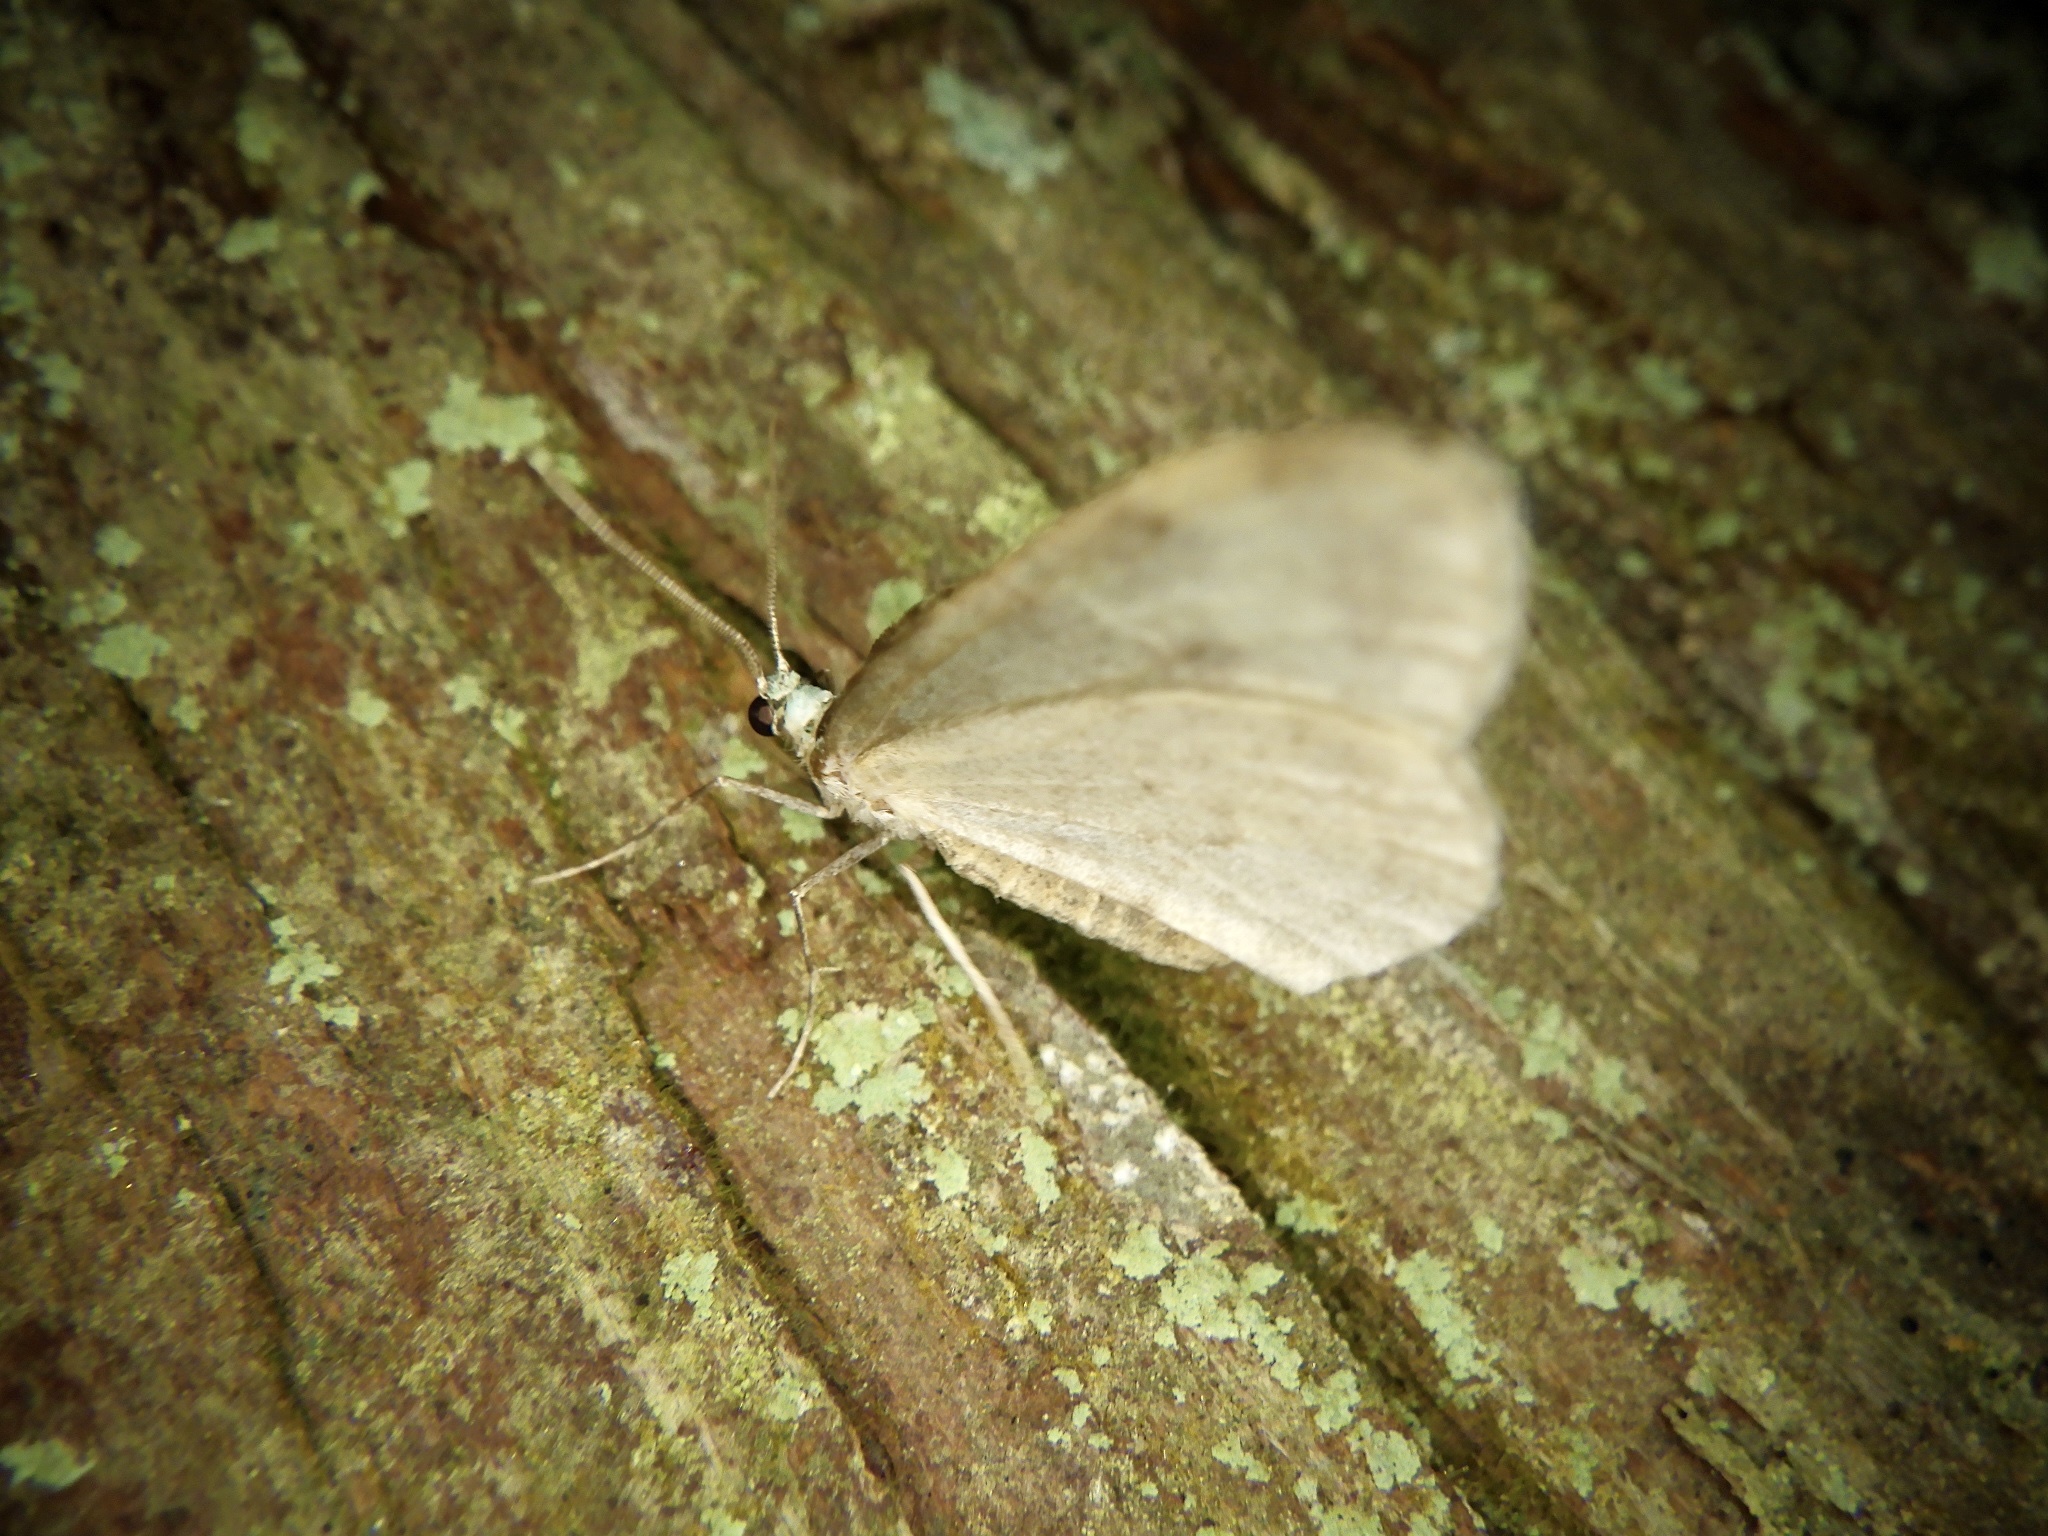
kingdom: Animalia
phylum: Arthropoda
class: Insecta
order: Lepidoptera
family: Geometridae
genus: Epirrita
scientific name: Epirrita viridipurpurescens
